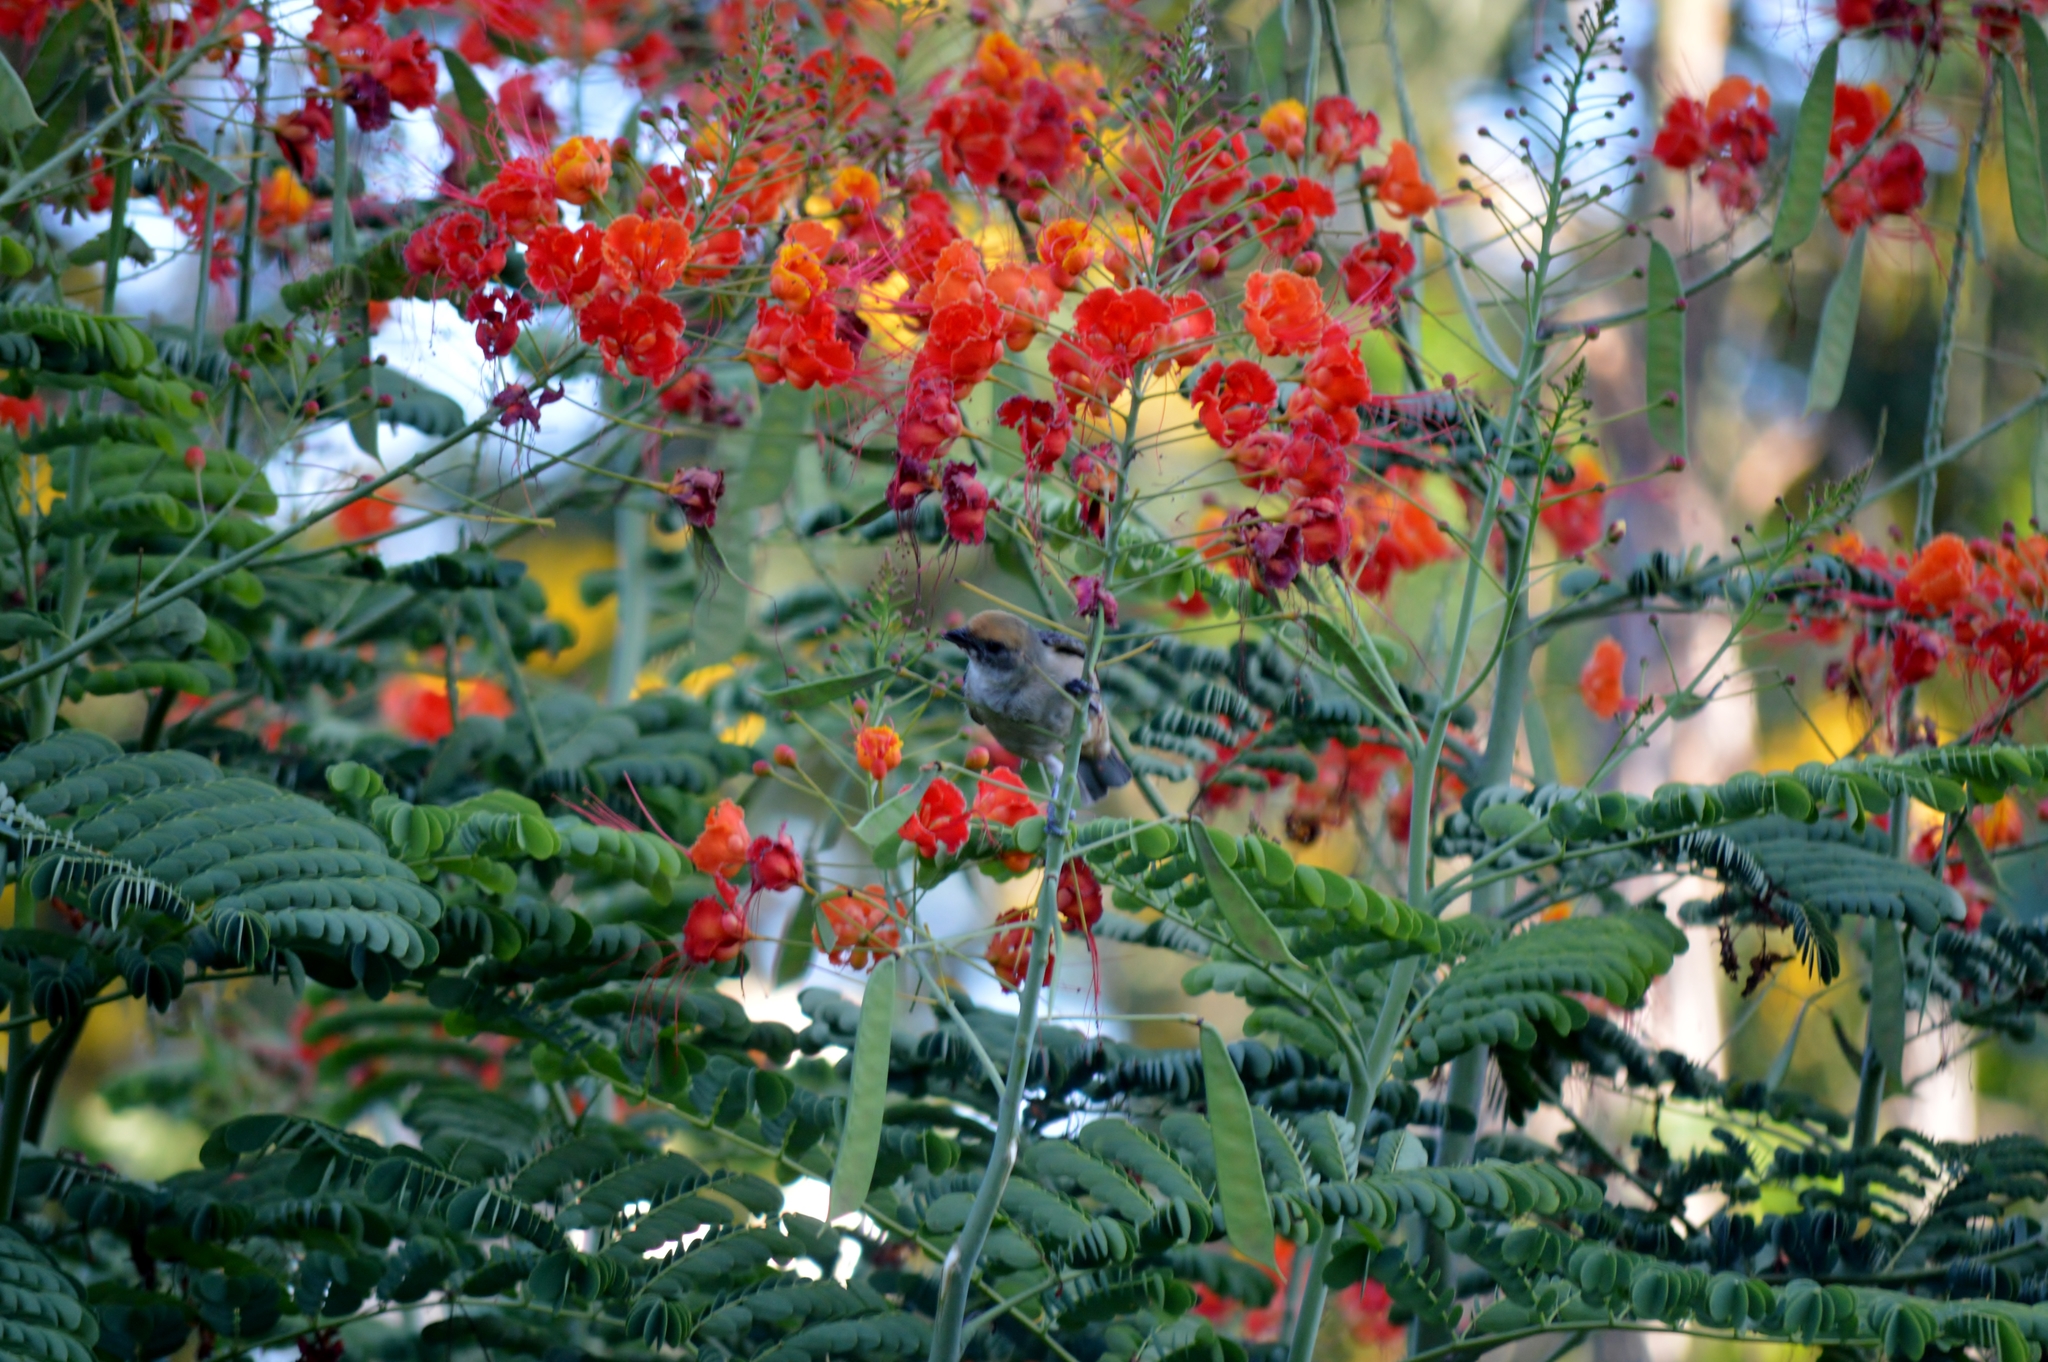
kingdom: Animalia
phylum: Chordata
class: Aves
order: Passeriformes
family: Thraupidae
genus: Stilpnia
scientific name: Stilpnia cayana
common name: Burnished-buff tanager
